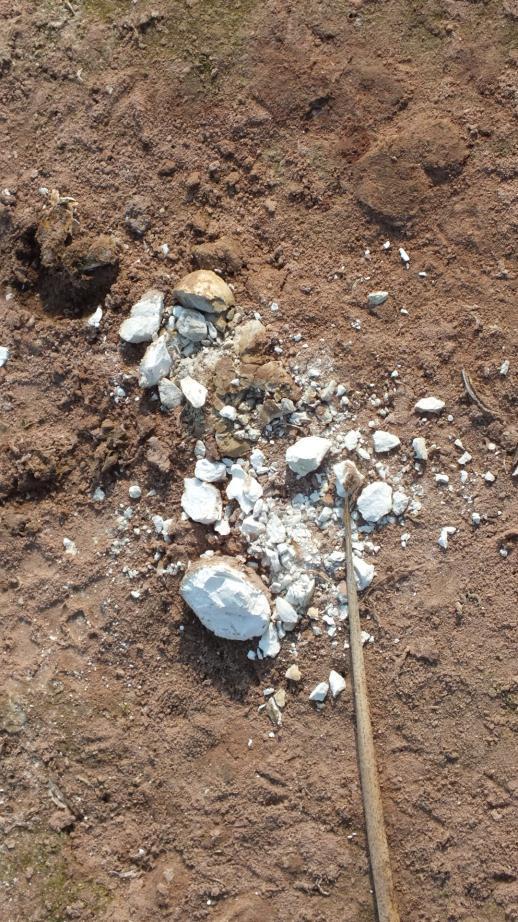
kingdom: Animalia
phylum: Chordata
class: Crocodylia
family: Crocodylidae
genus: Crocodylus
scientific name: Crocodylus niloticus
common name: Nile crocodile
